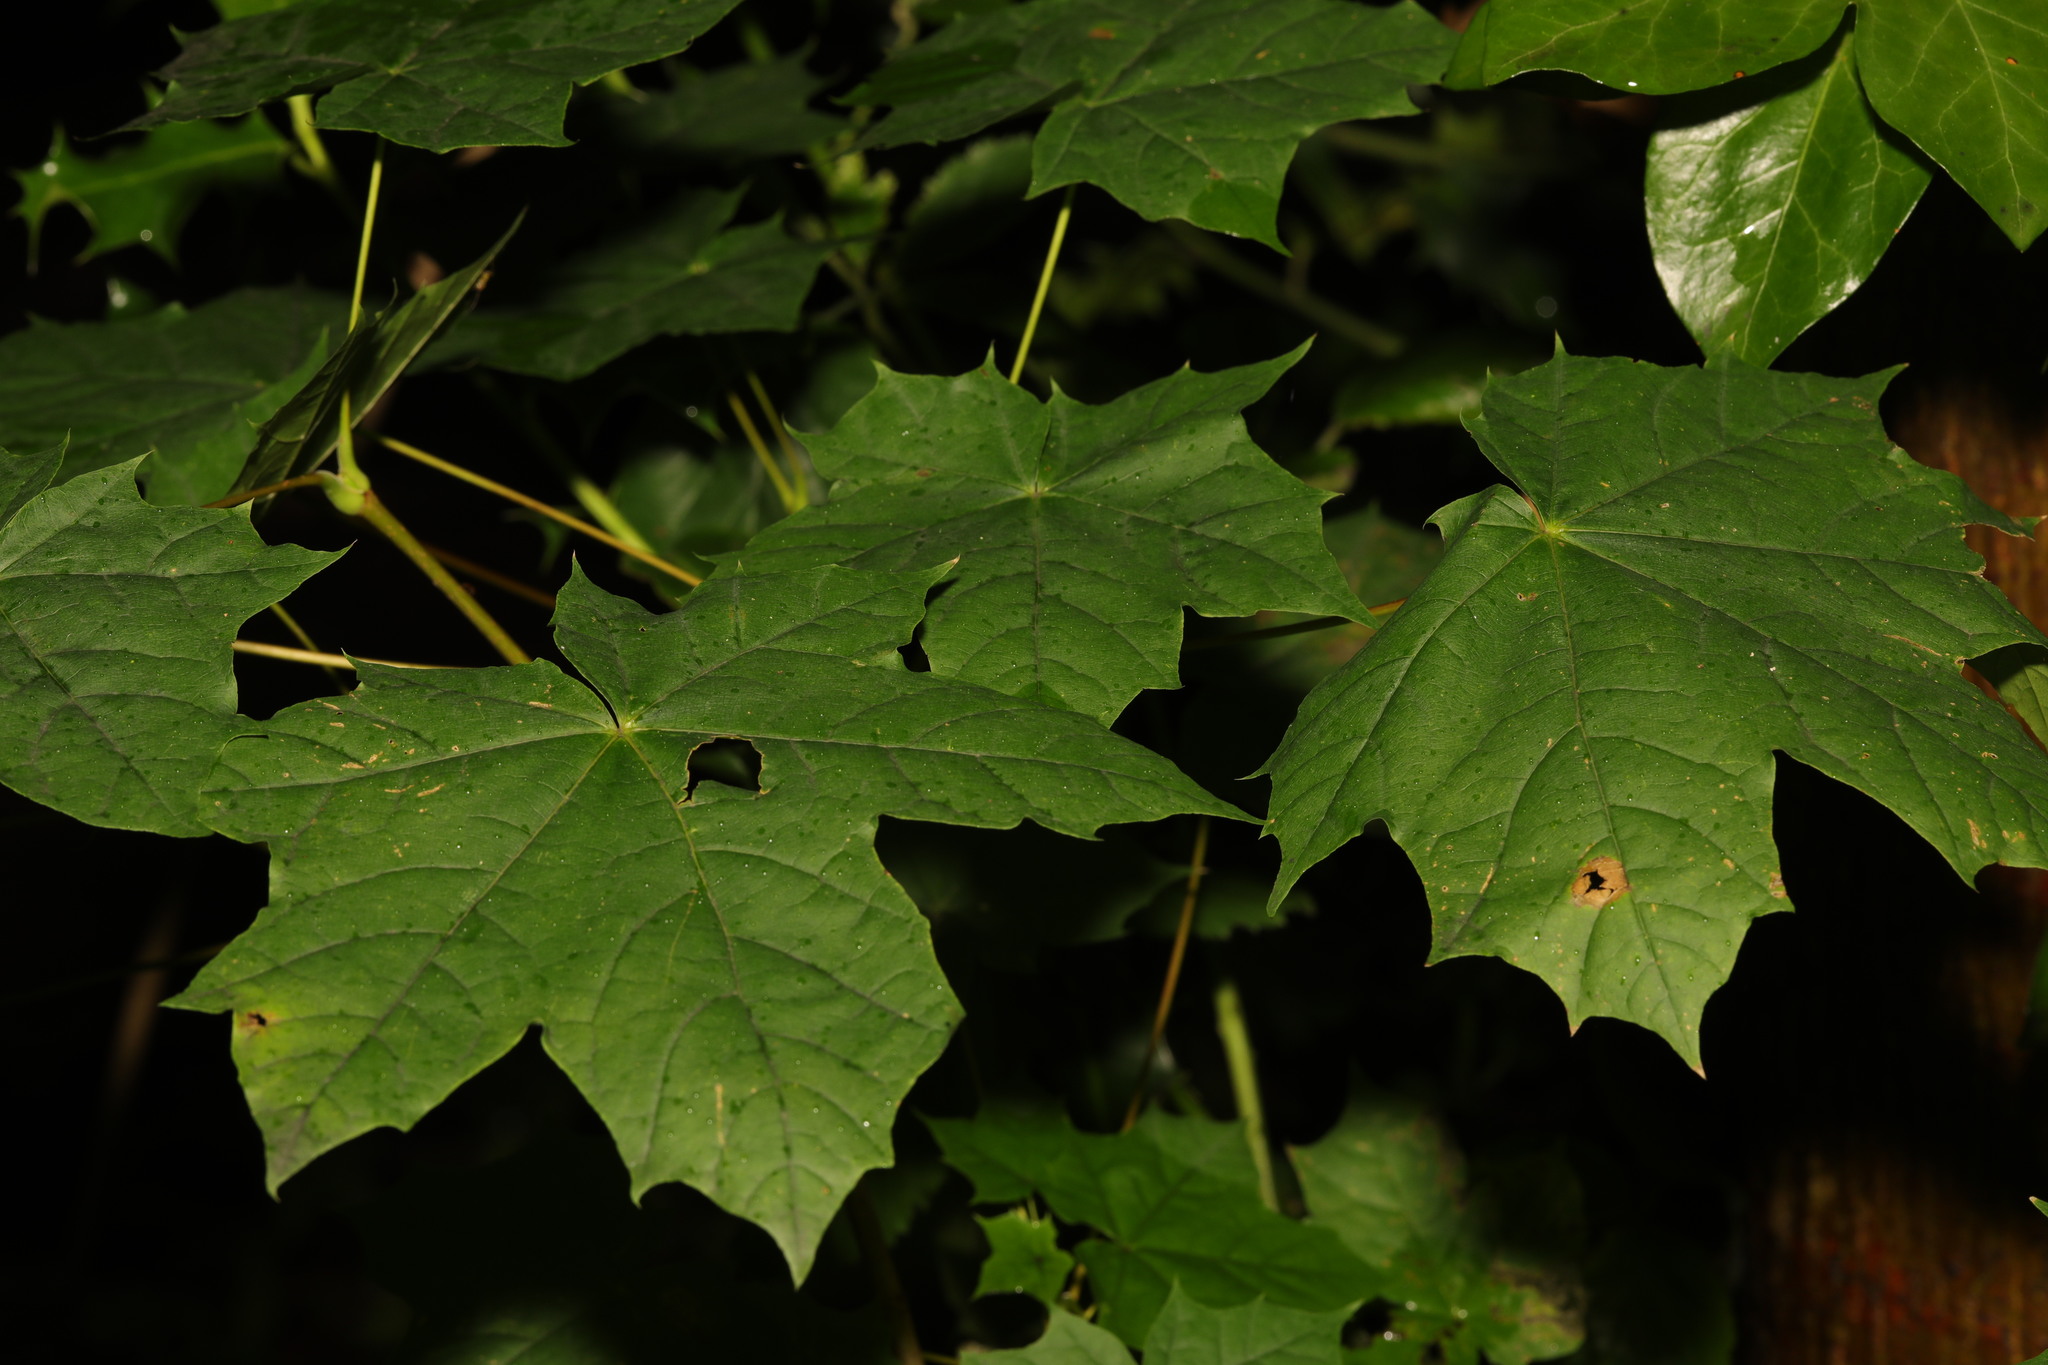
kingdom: Plantae
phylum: Tracheophyta
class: Magnoliopsida
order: Sapindales
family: Sapindaceae
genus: Acer
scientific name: Acer platanoides
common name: Norway maple
